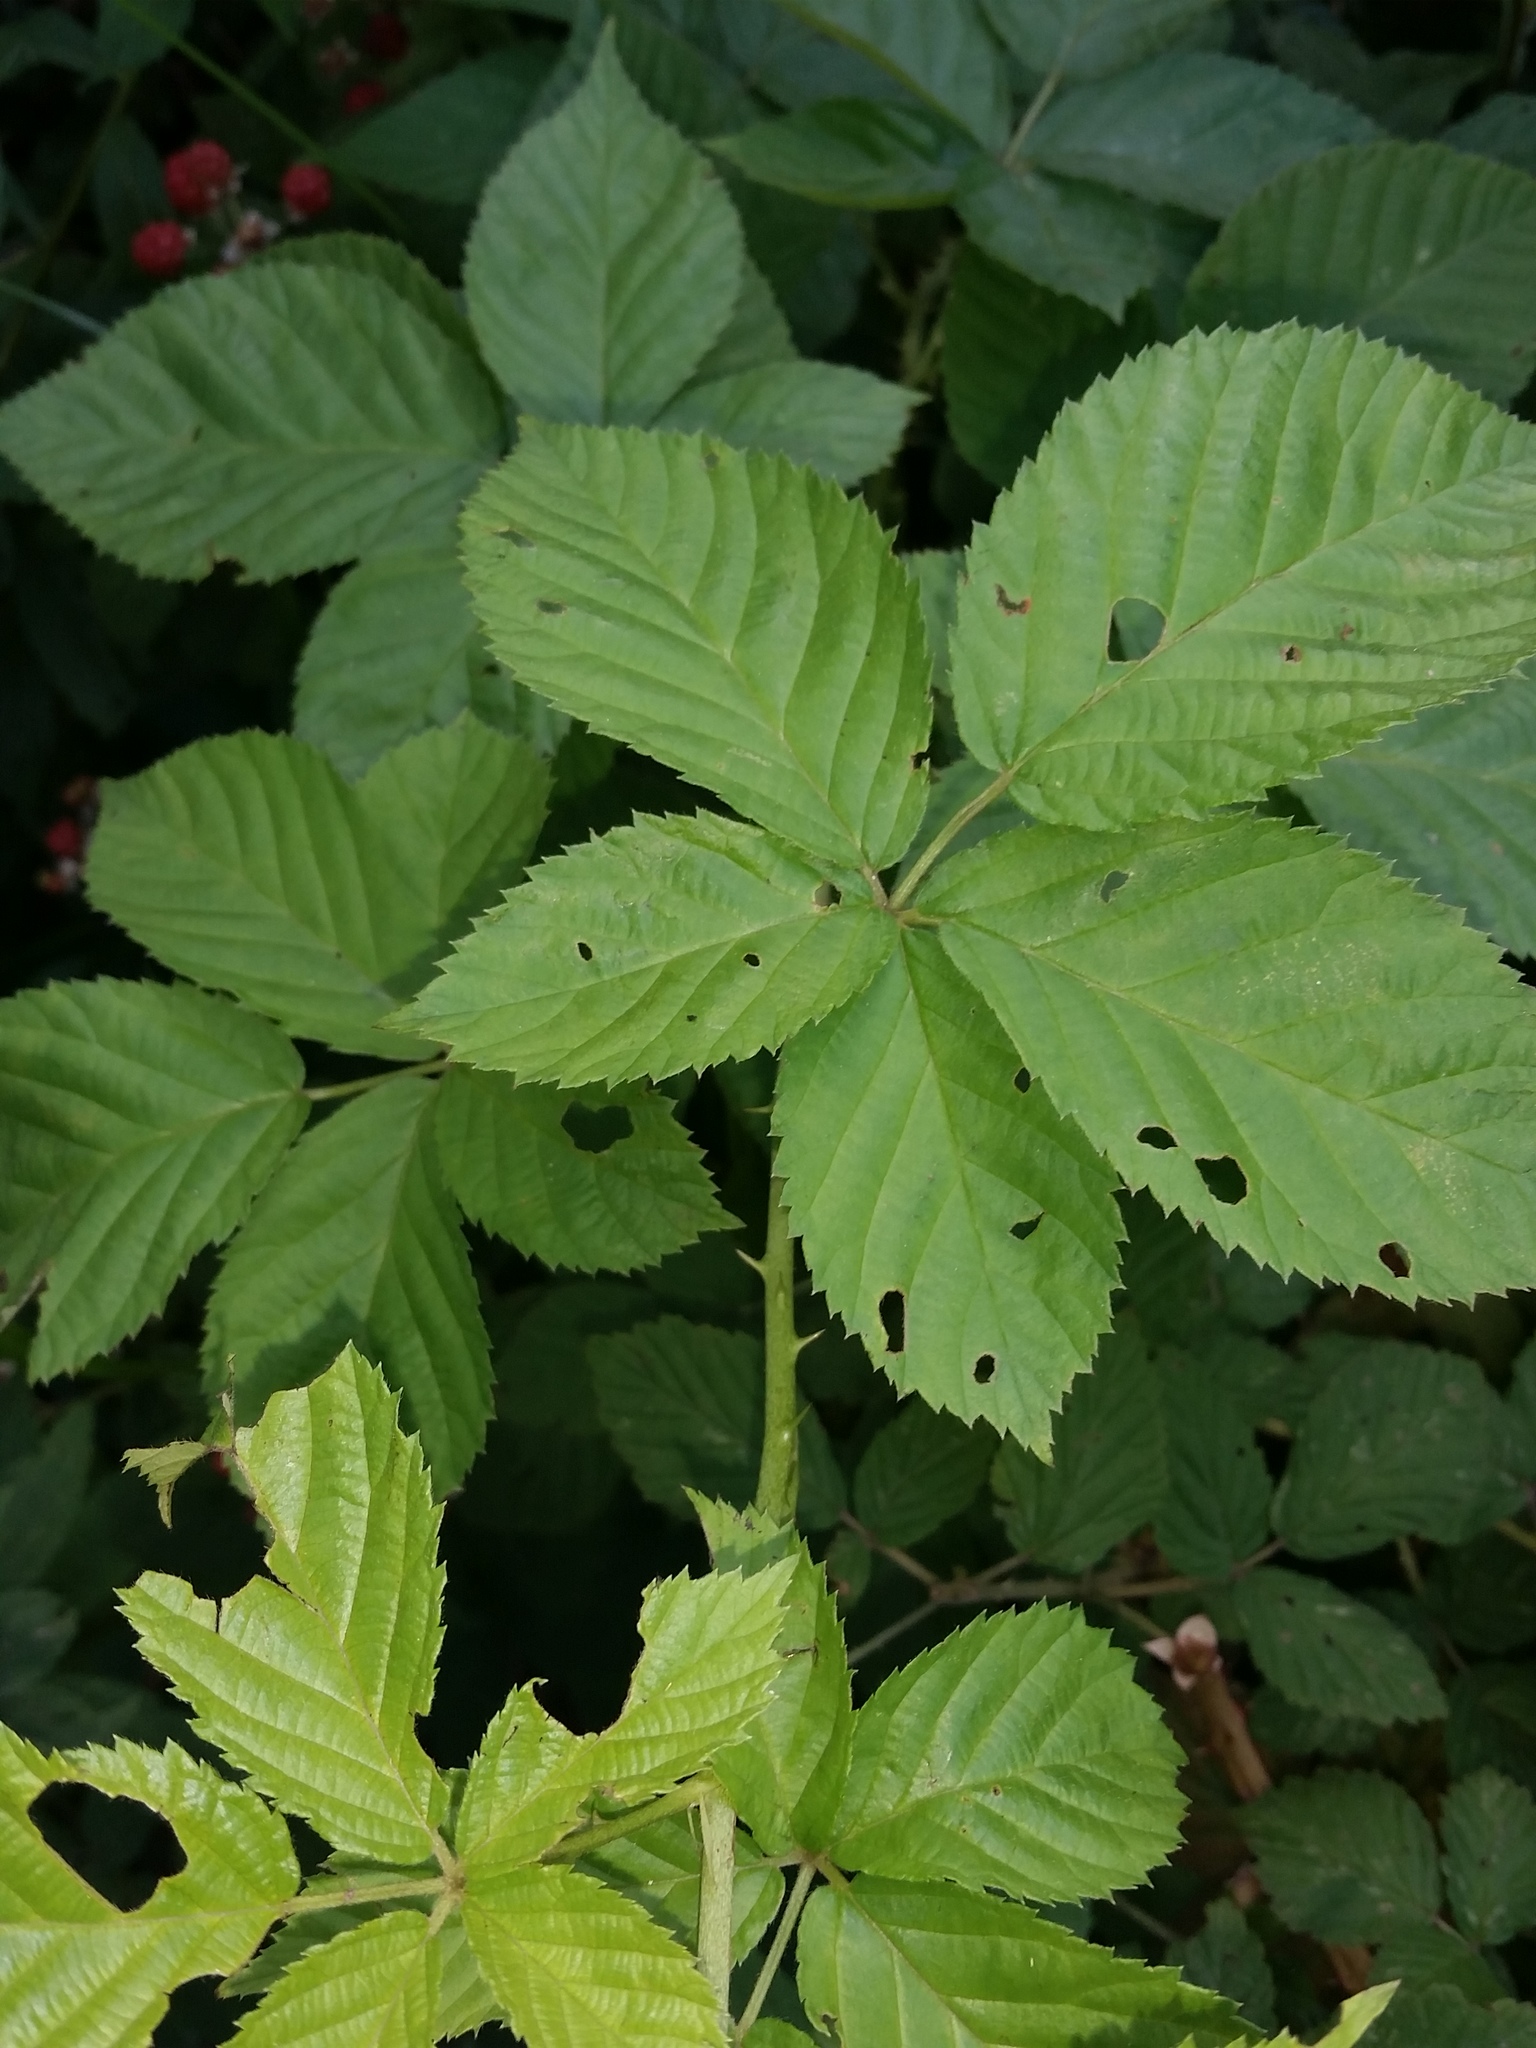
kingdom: Plantae
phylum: Tracheophyta
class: Magnoliopsida
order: Rosales
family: Rosaceae
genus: Rubus
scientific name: Rubus allegheniensis
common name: Allegheny blackberry
